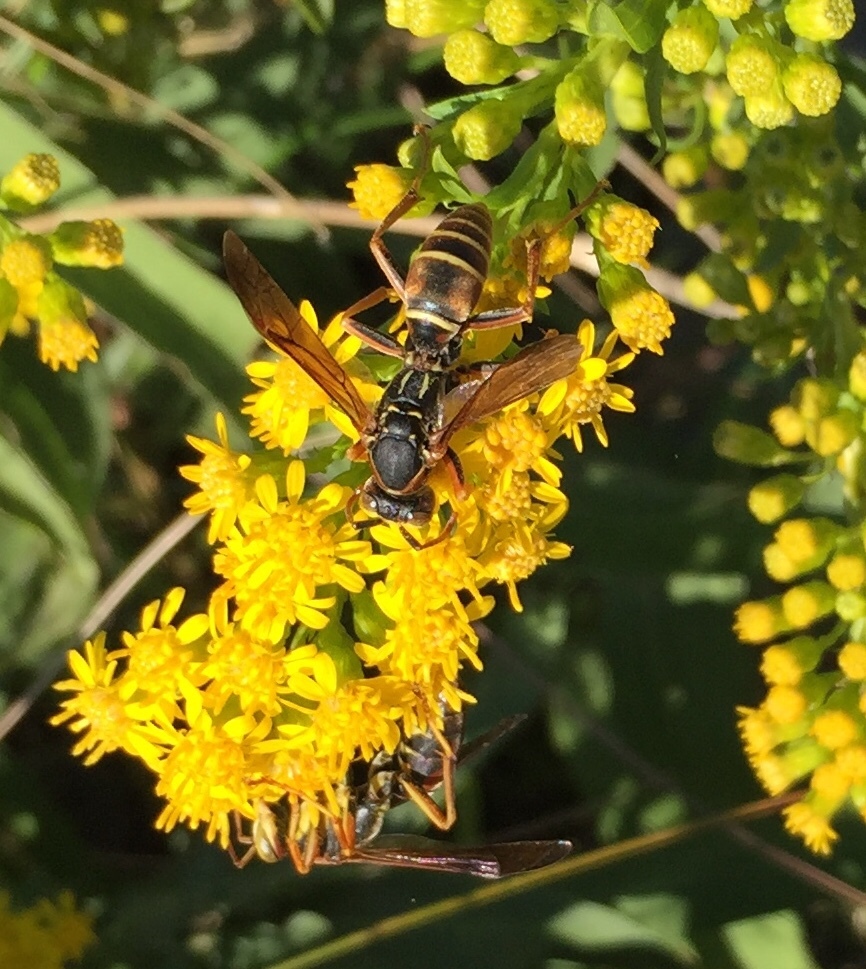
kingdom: Animalia
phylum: Arthropoda
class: Insecta
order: Hymenoptera
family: Eumenidae
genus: Polistes
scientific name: Polistes fuscatus
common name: Dark paper wasp
